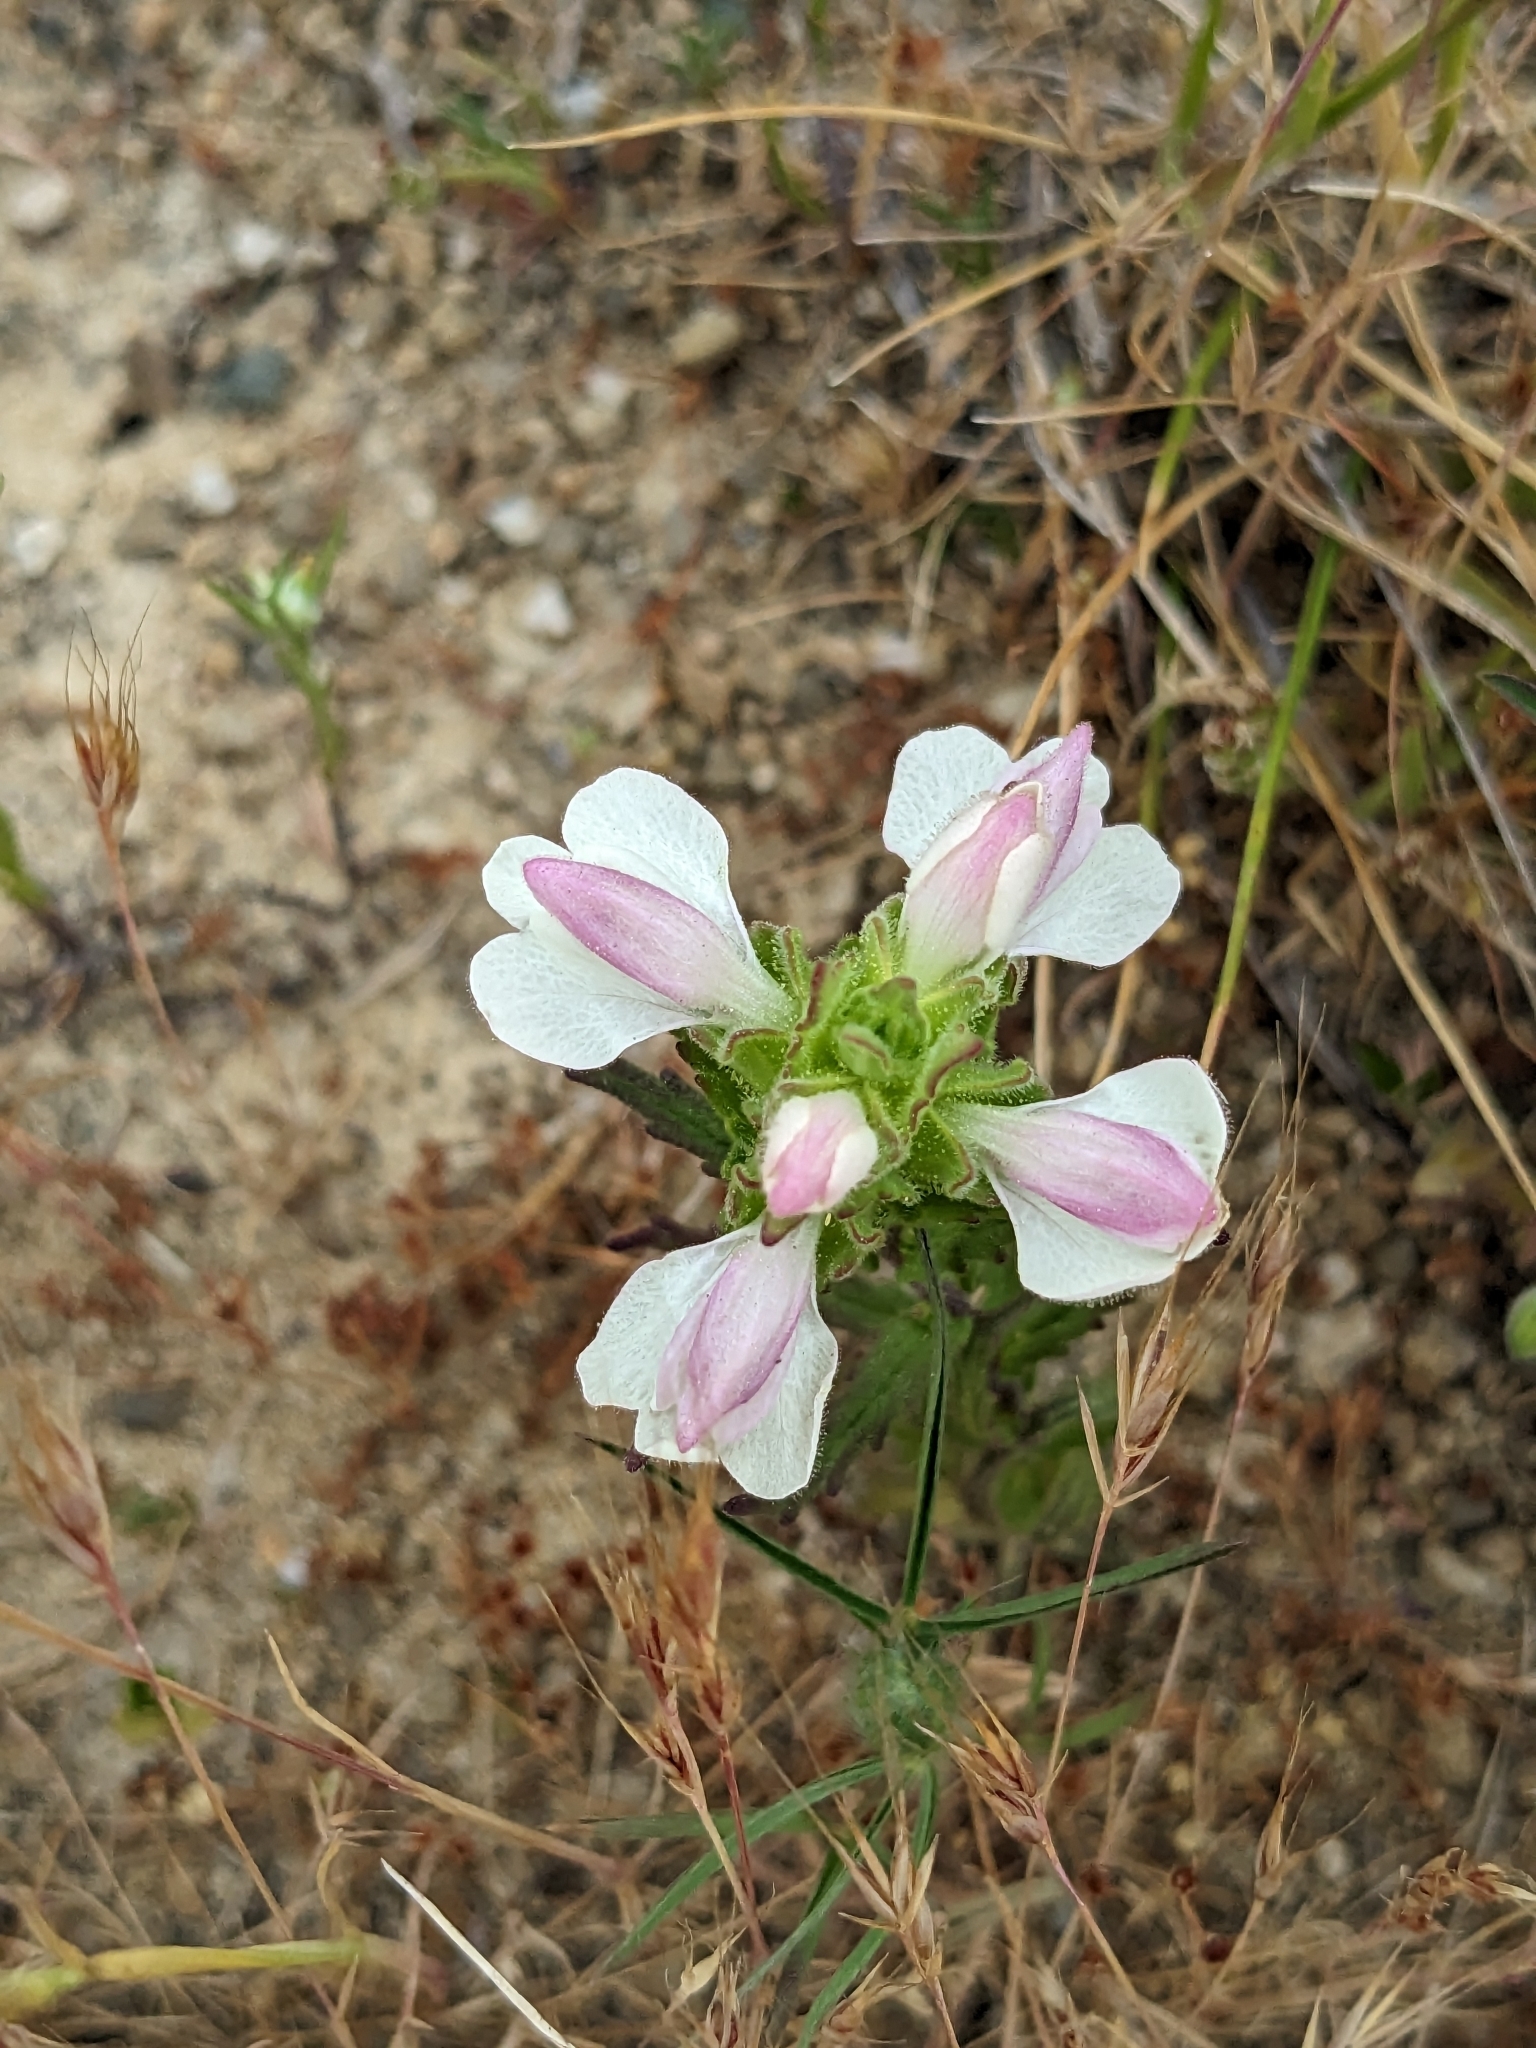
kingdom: Plantae
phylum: Tracheophyta
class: Magnoliopsida
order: Lamiales
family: Orobanchaceae
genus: Bellardia
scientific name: Bellardia trixago
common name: Mediterranean lineseed
